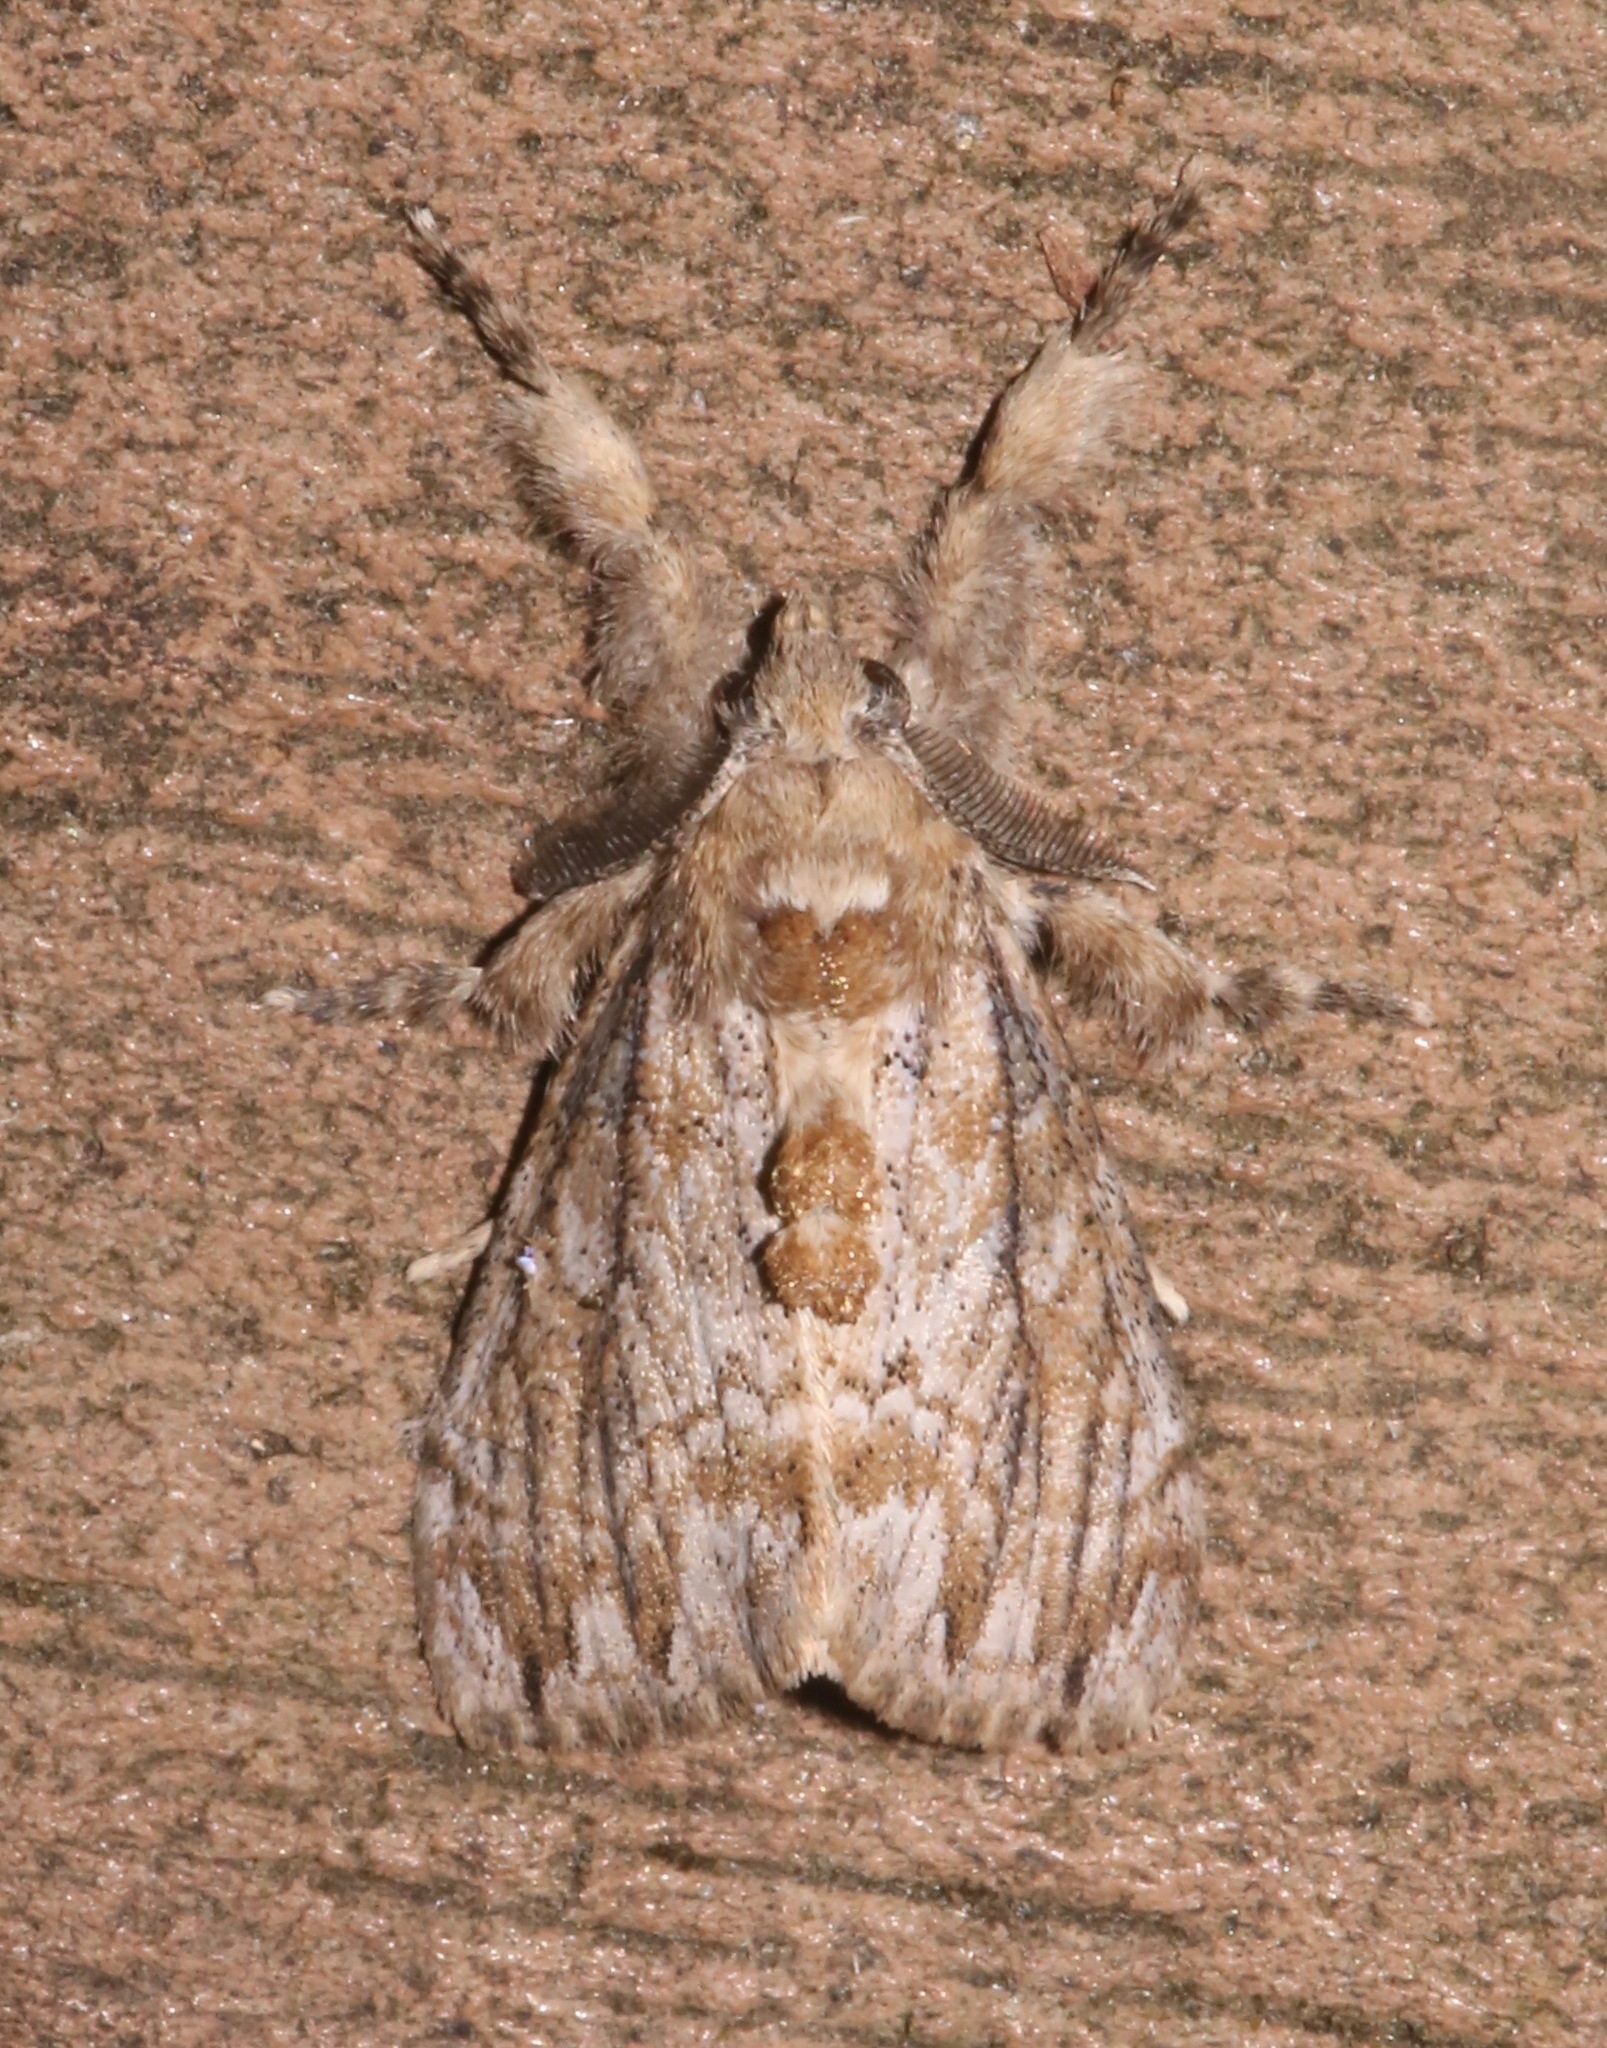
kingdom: Animalia
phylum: Arthropoda
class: Insecta
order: Lepidoptera
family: Erebidae
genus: Dasychira
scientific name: Dasychira atrivenosa
